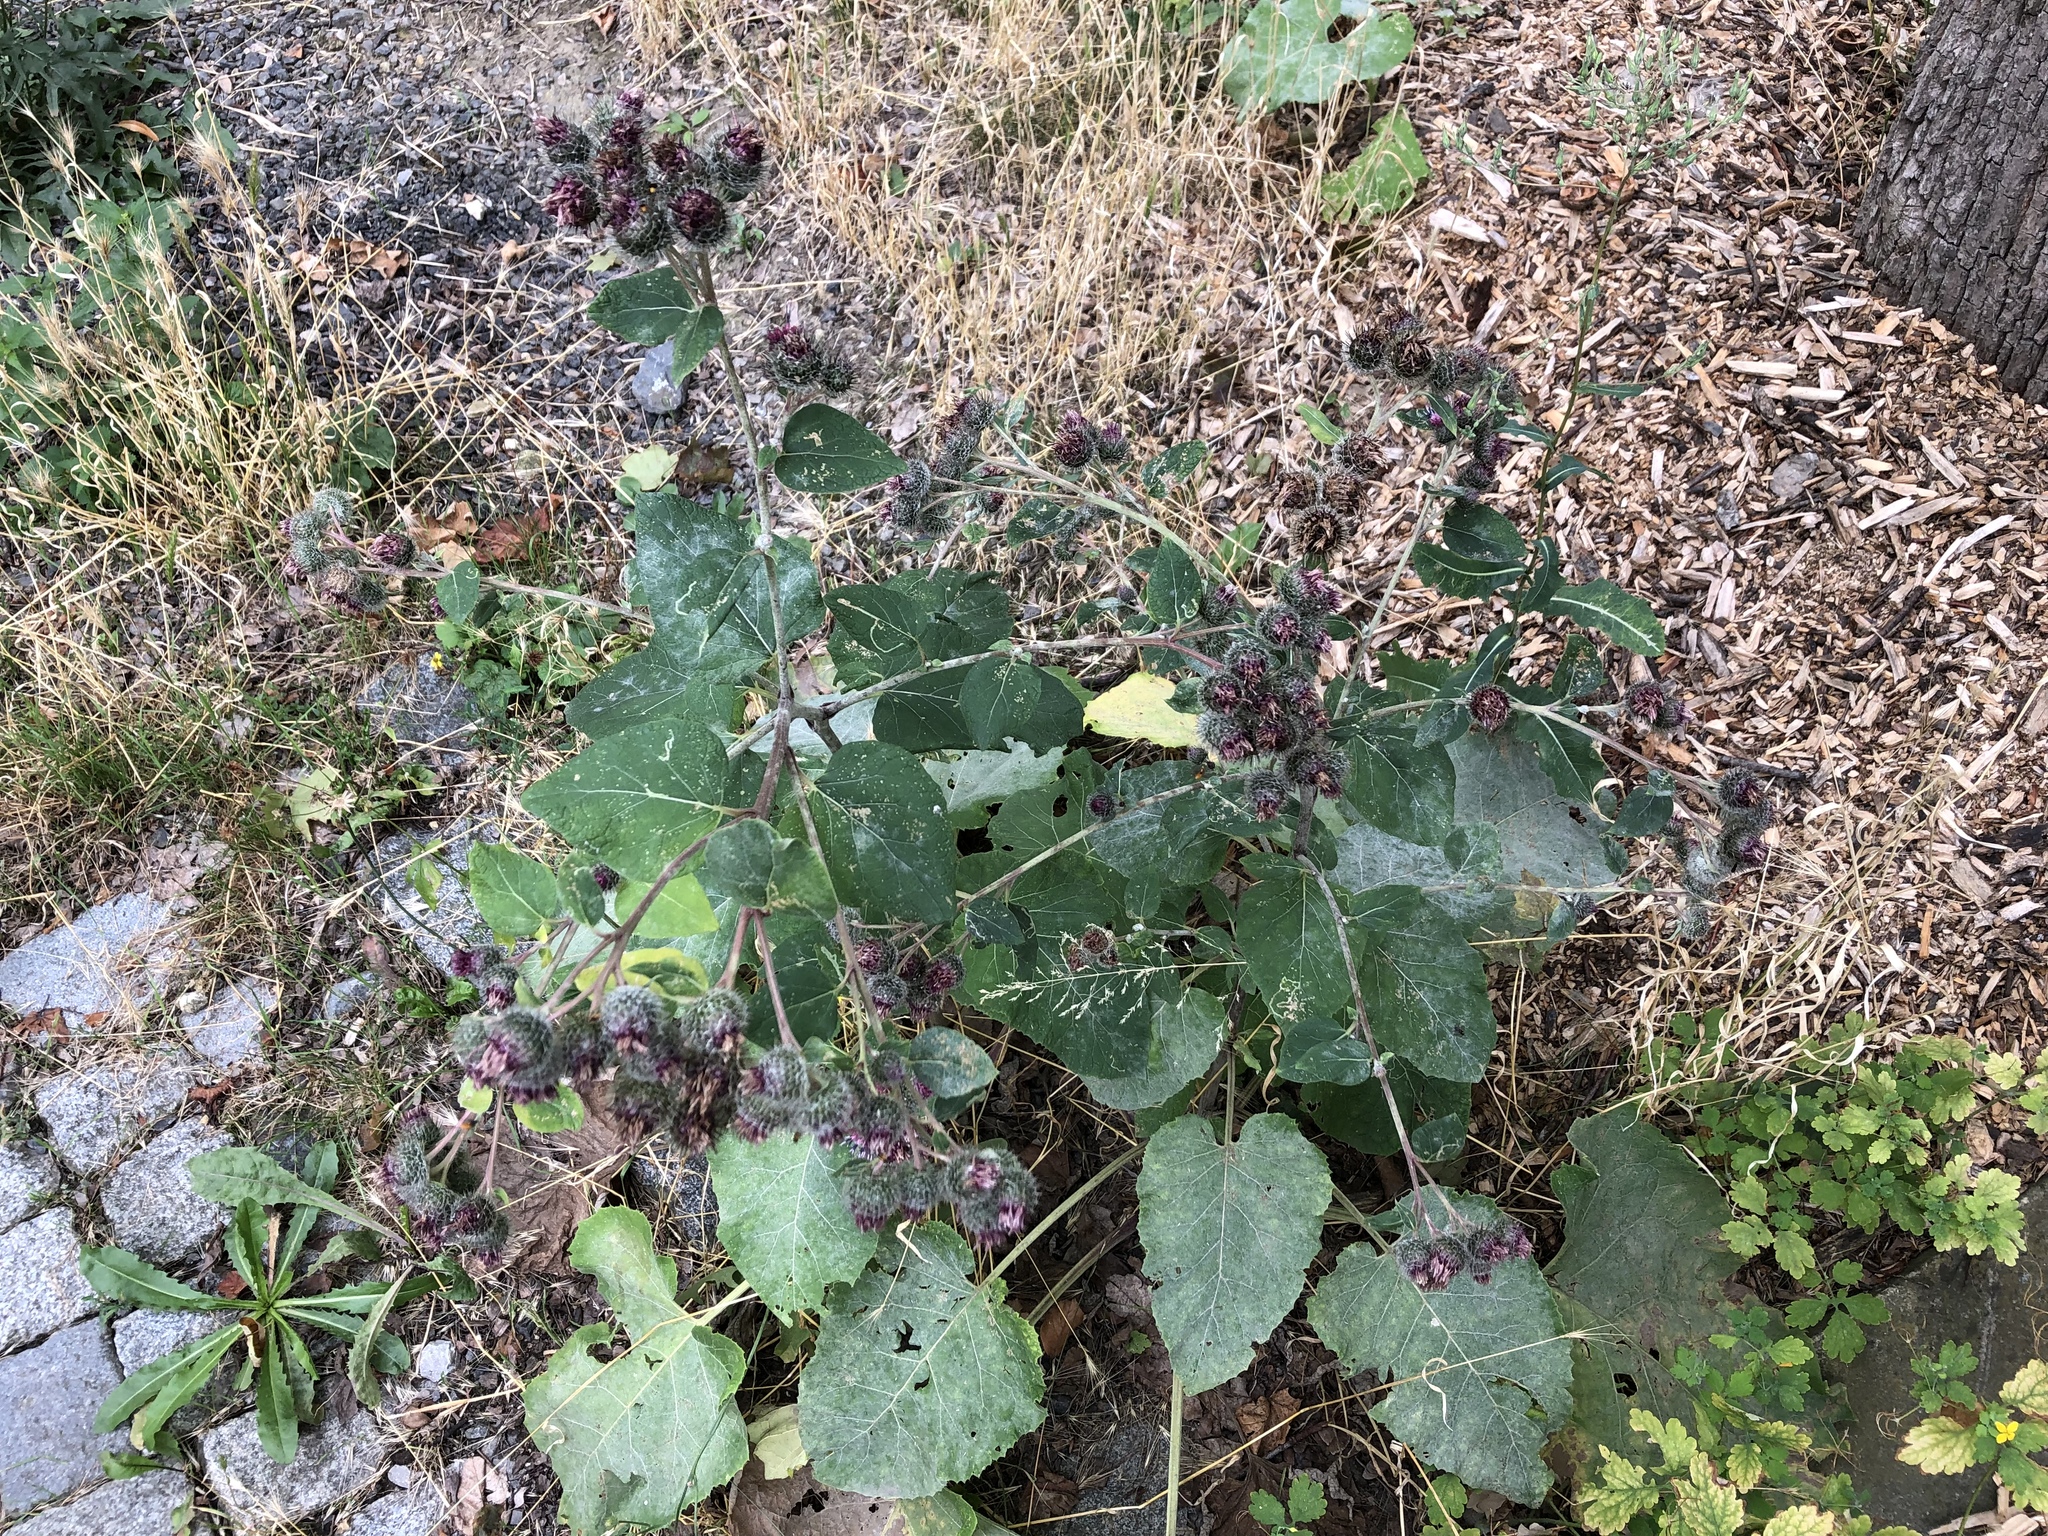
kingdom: Plantae
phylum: Tracheophyta
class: Magnoliopsida
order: Asterales
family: Asteraceae
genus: Arctium
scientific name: Arctium tomentosum
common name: Woolly burdock
